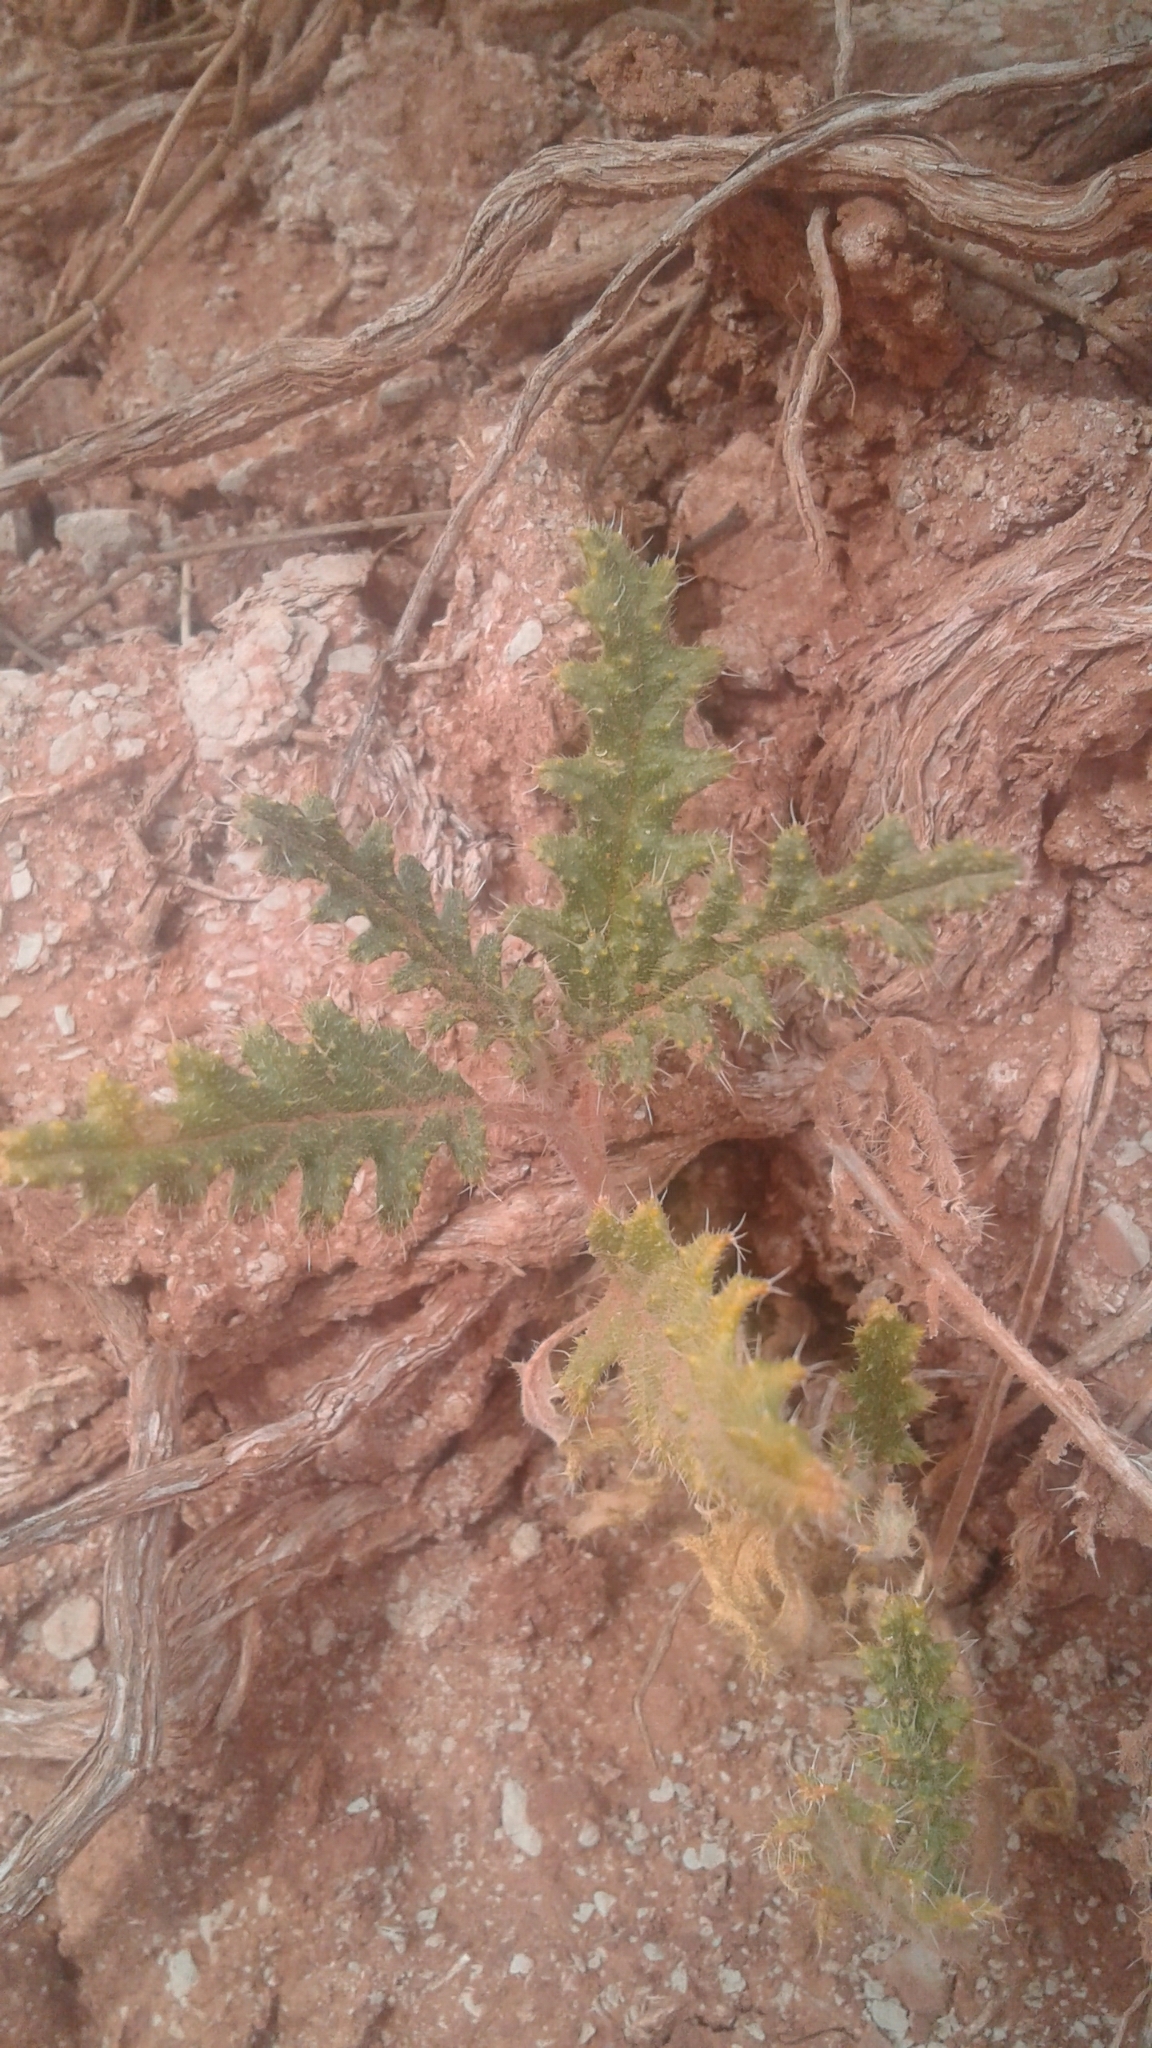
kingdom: Plantae
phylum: Tracheophyta
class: Magnoliopsida
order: Cornales
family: Loasaceae
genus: Cevallia
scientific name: Cevallia sinuata
